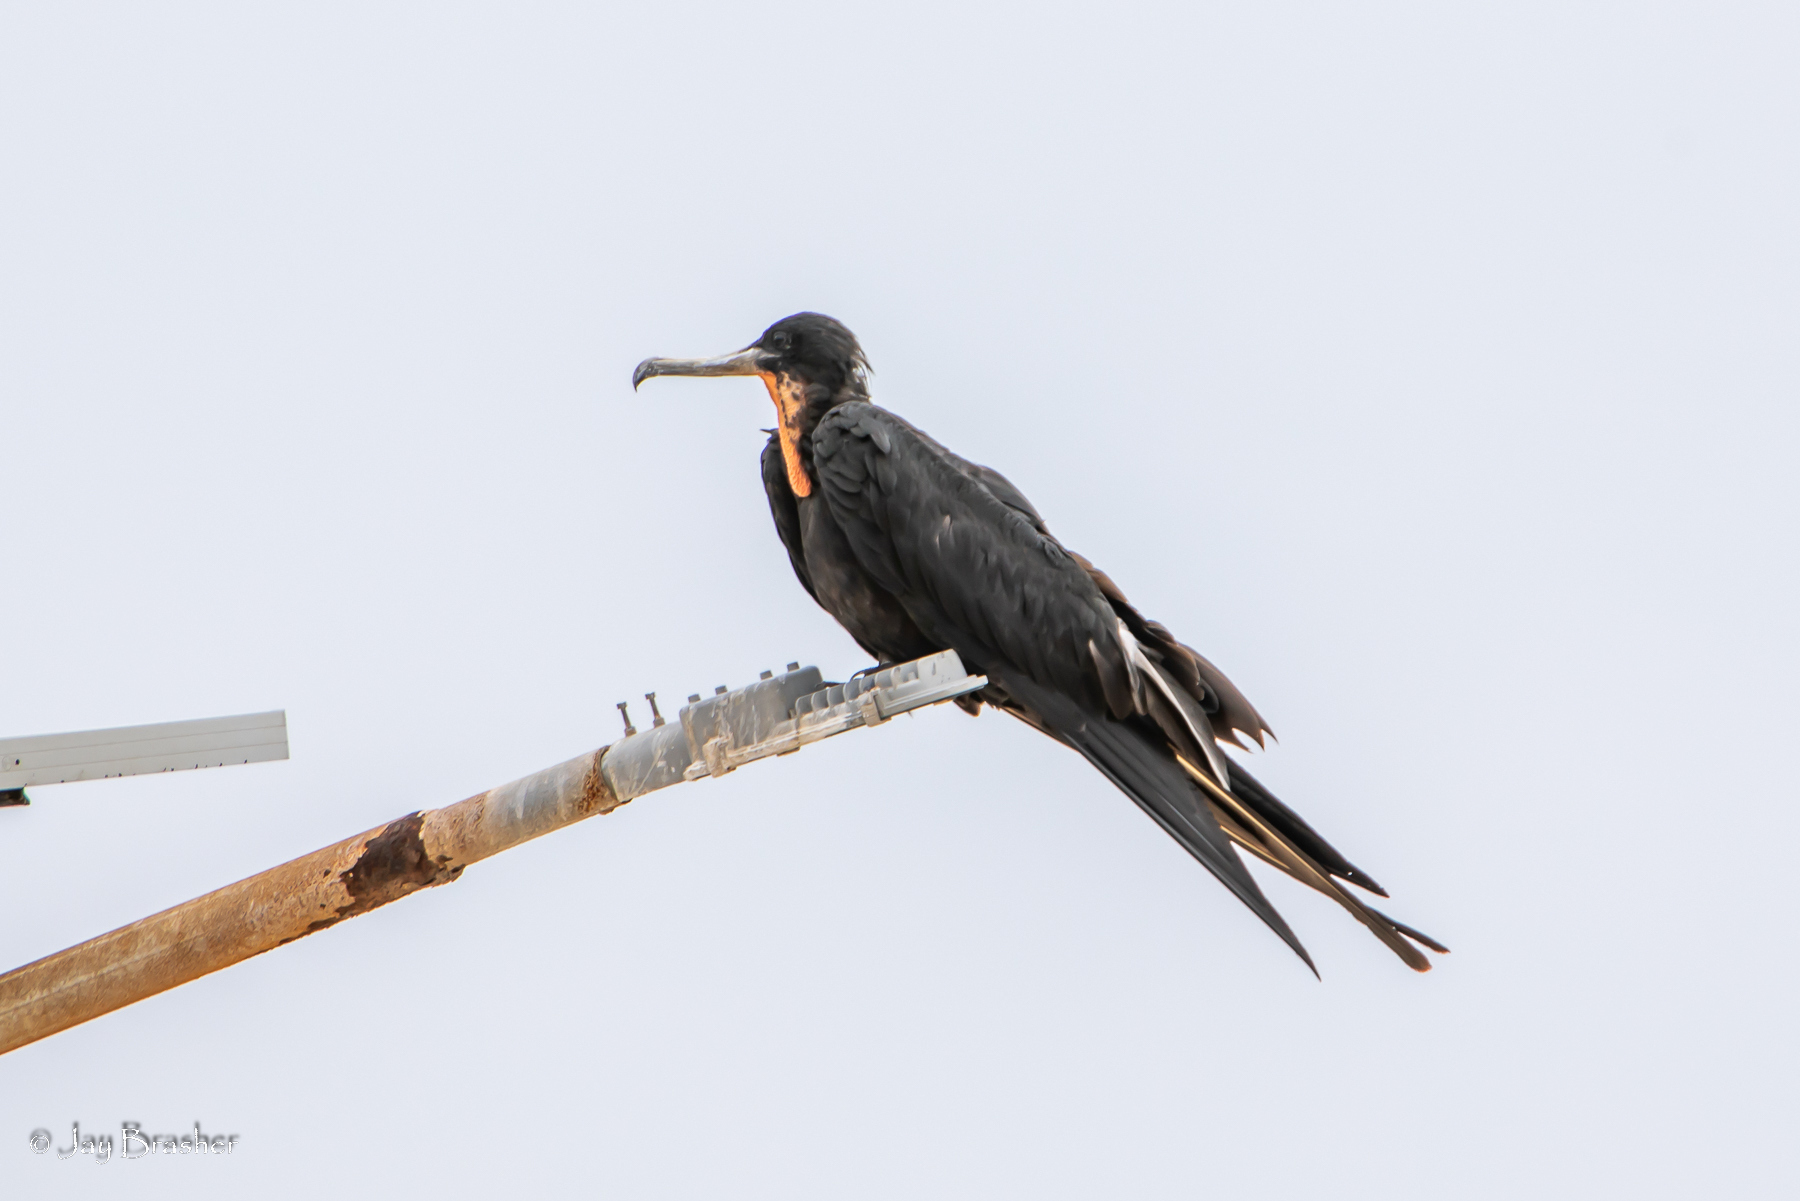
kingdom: Animalia
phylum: Chordata
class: Aves
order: Suliformes
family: Fregatidae
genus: Fregata
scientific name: Fregata magnificens
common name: Magnificent frigatebird
